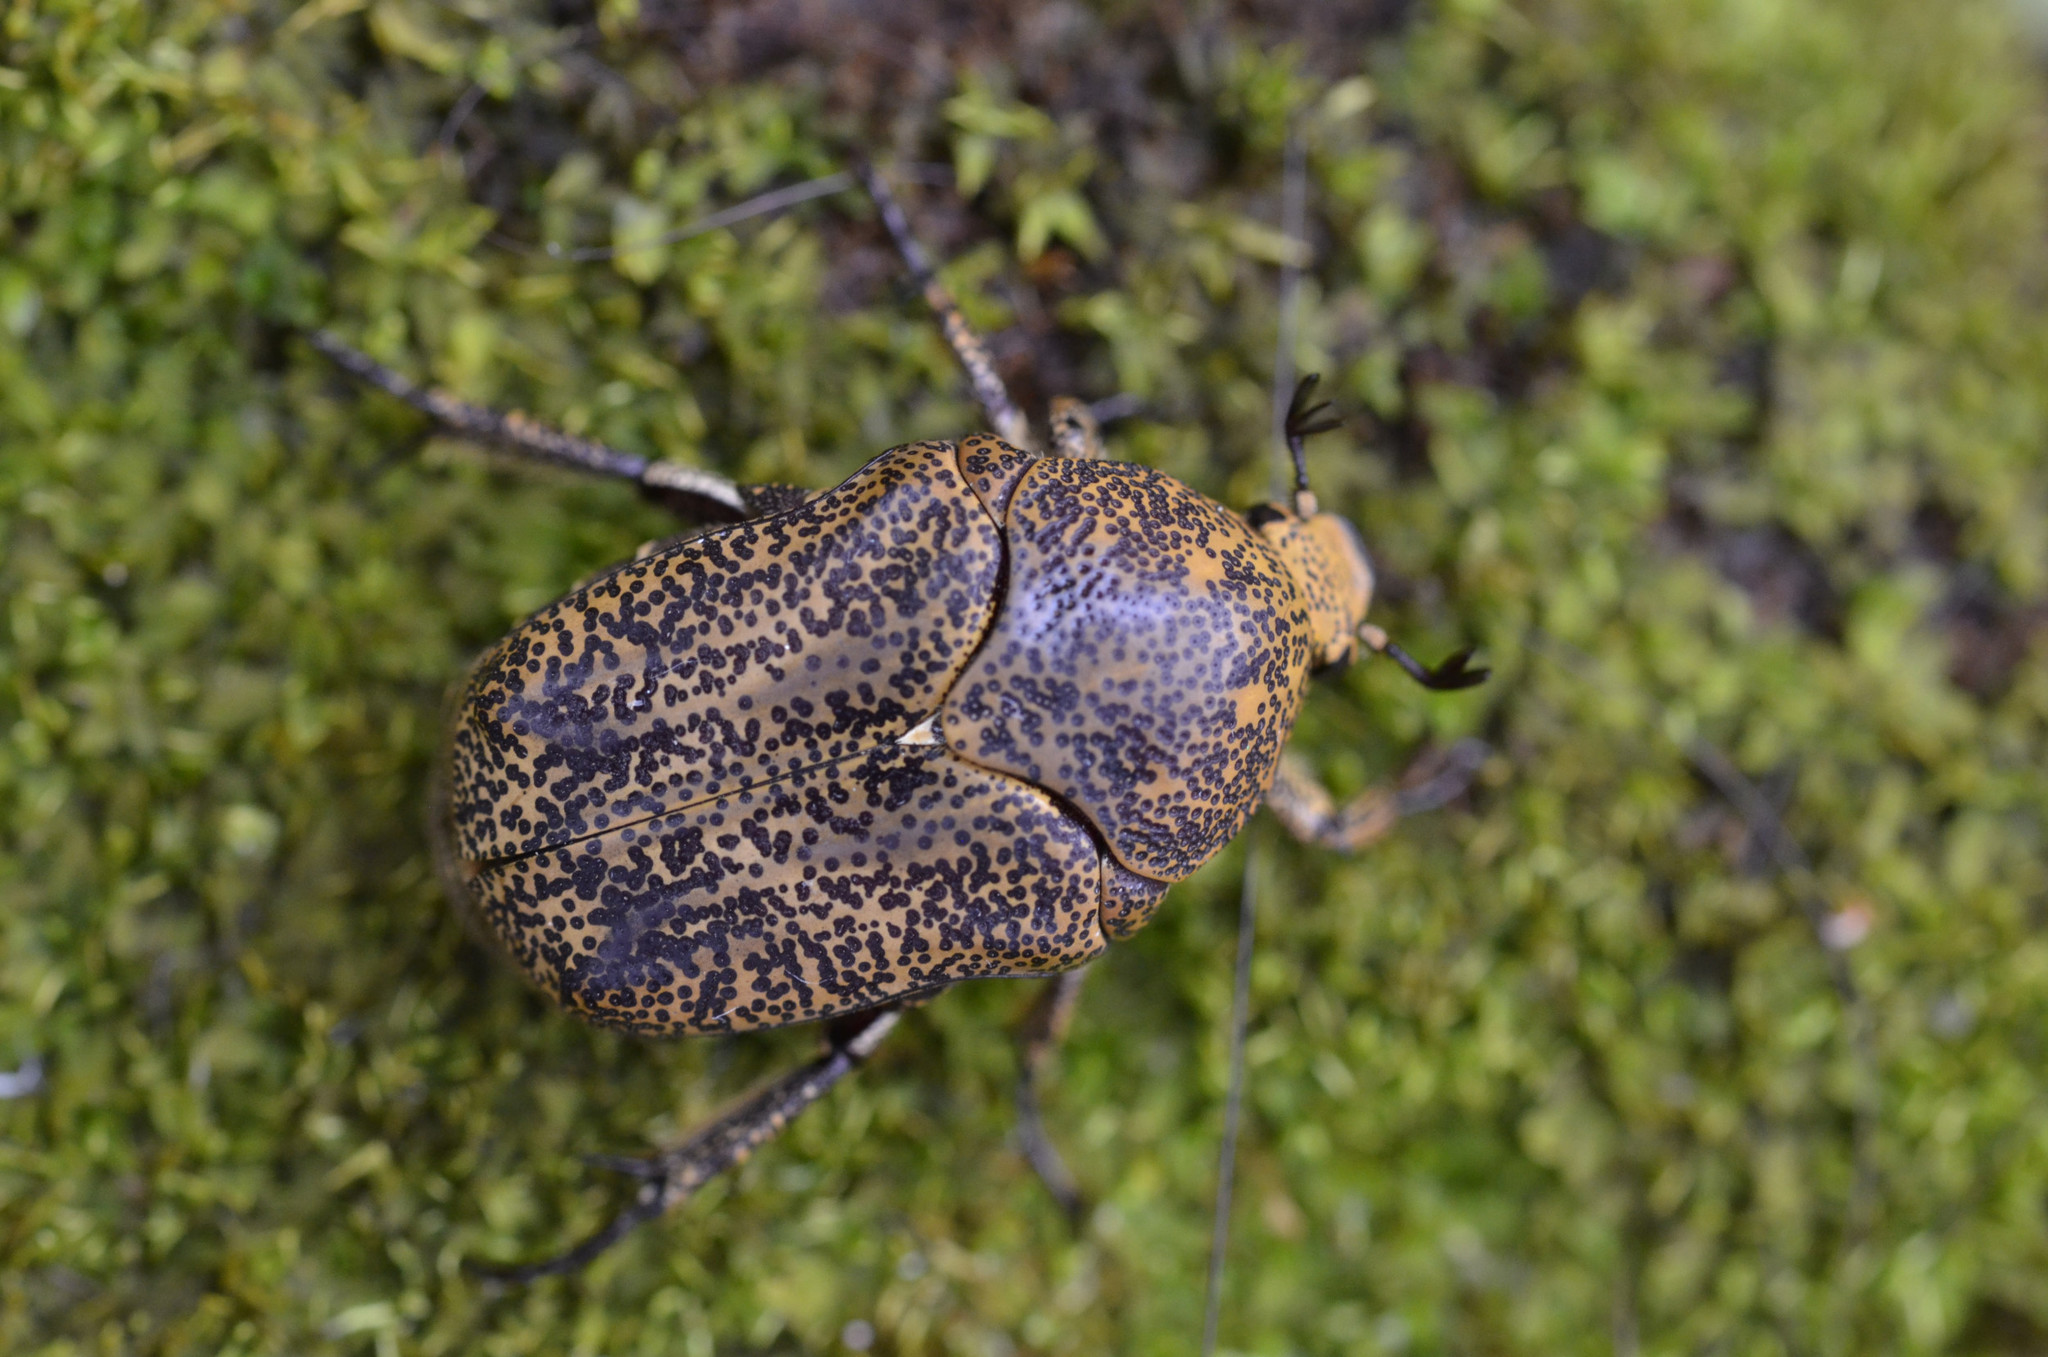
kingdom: Animalia
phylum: Arthropoda
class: Insecta
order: Coleoptera
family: Scarabaeidae
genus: Marmarina
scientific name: Marmarina maculosa
